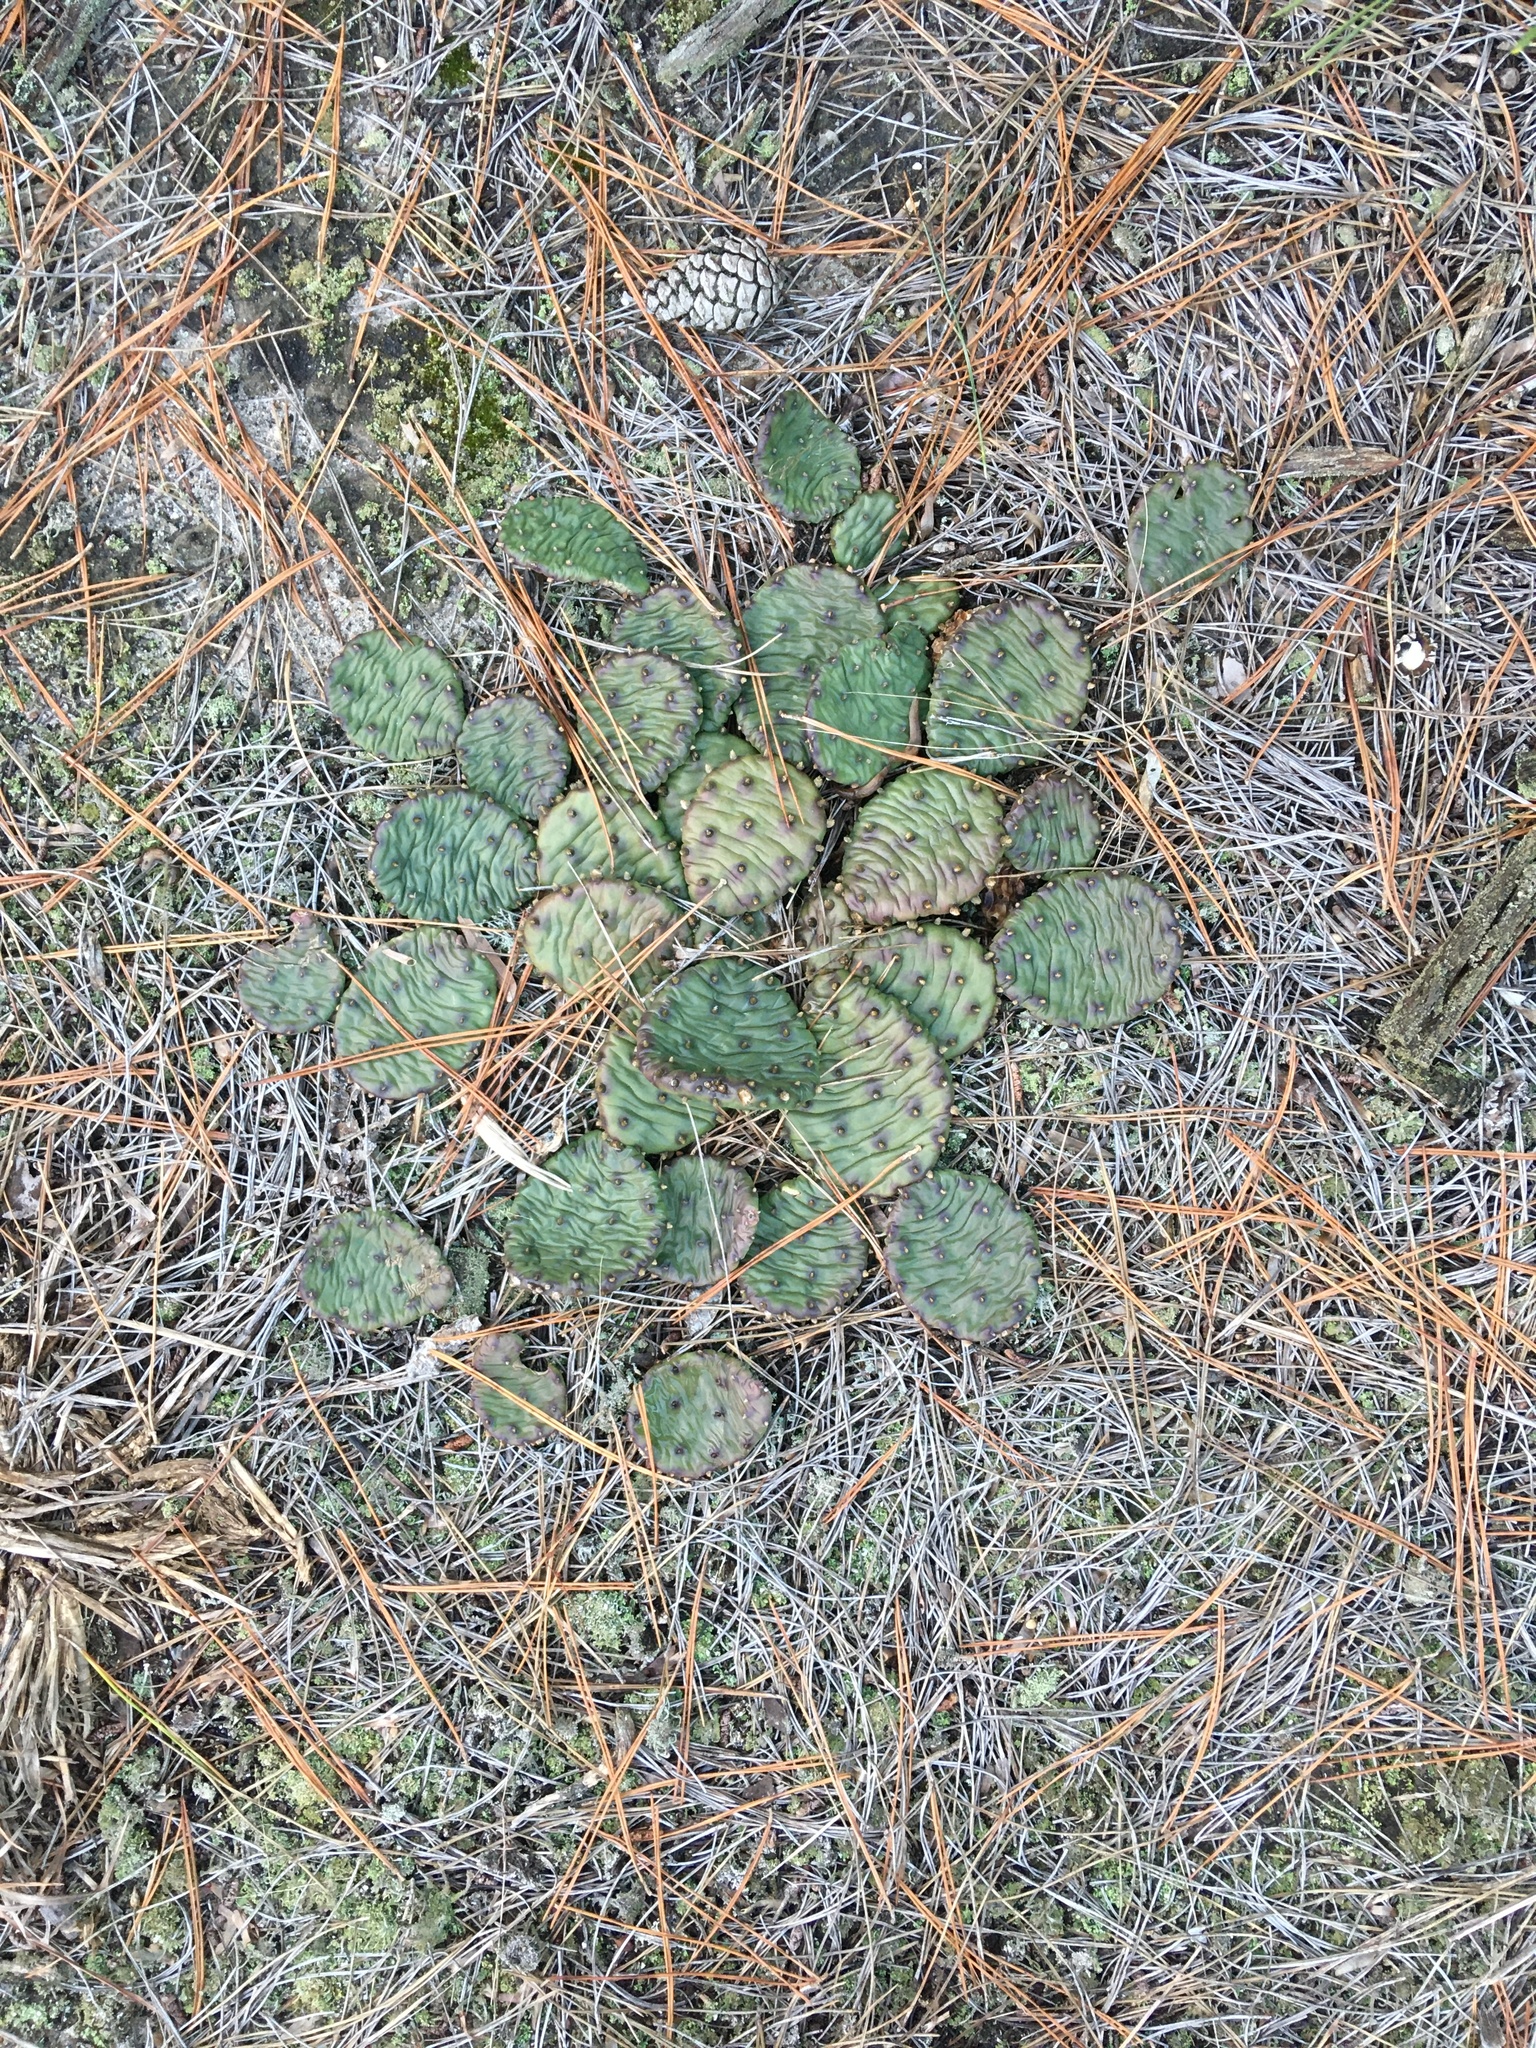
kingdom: Plantae
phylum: Tracheophyta
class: Magnoliopsida
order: Caryophyllales
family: Cactaceae
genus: Opuntia
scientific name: Opuntia humifusa
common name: Eastern prickly-pear
